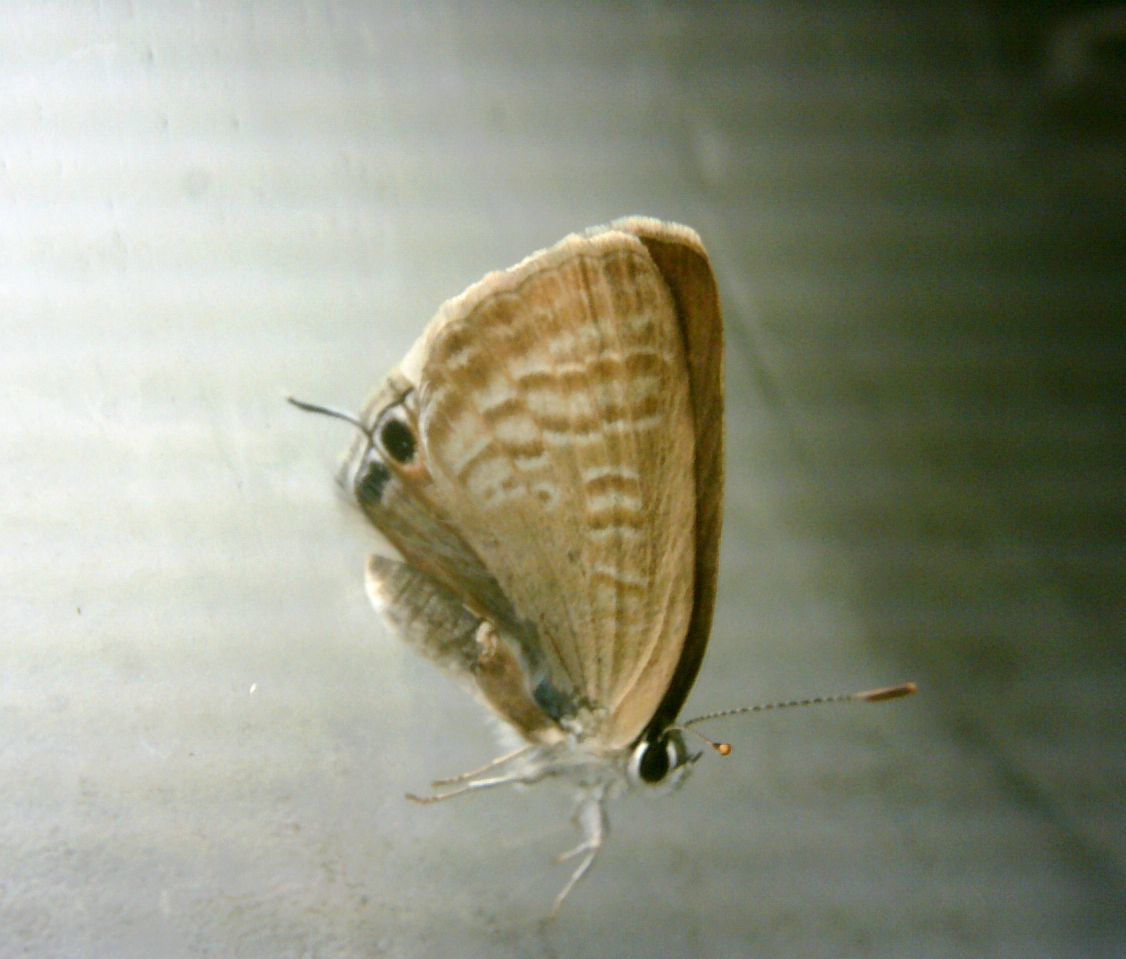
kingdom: Animalia
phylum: Arthropoda
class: Insecta
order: Lepidoptera
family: Lycaenidae
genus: Lampides
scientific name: Lampides boeticus
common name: Long-tailed blue
